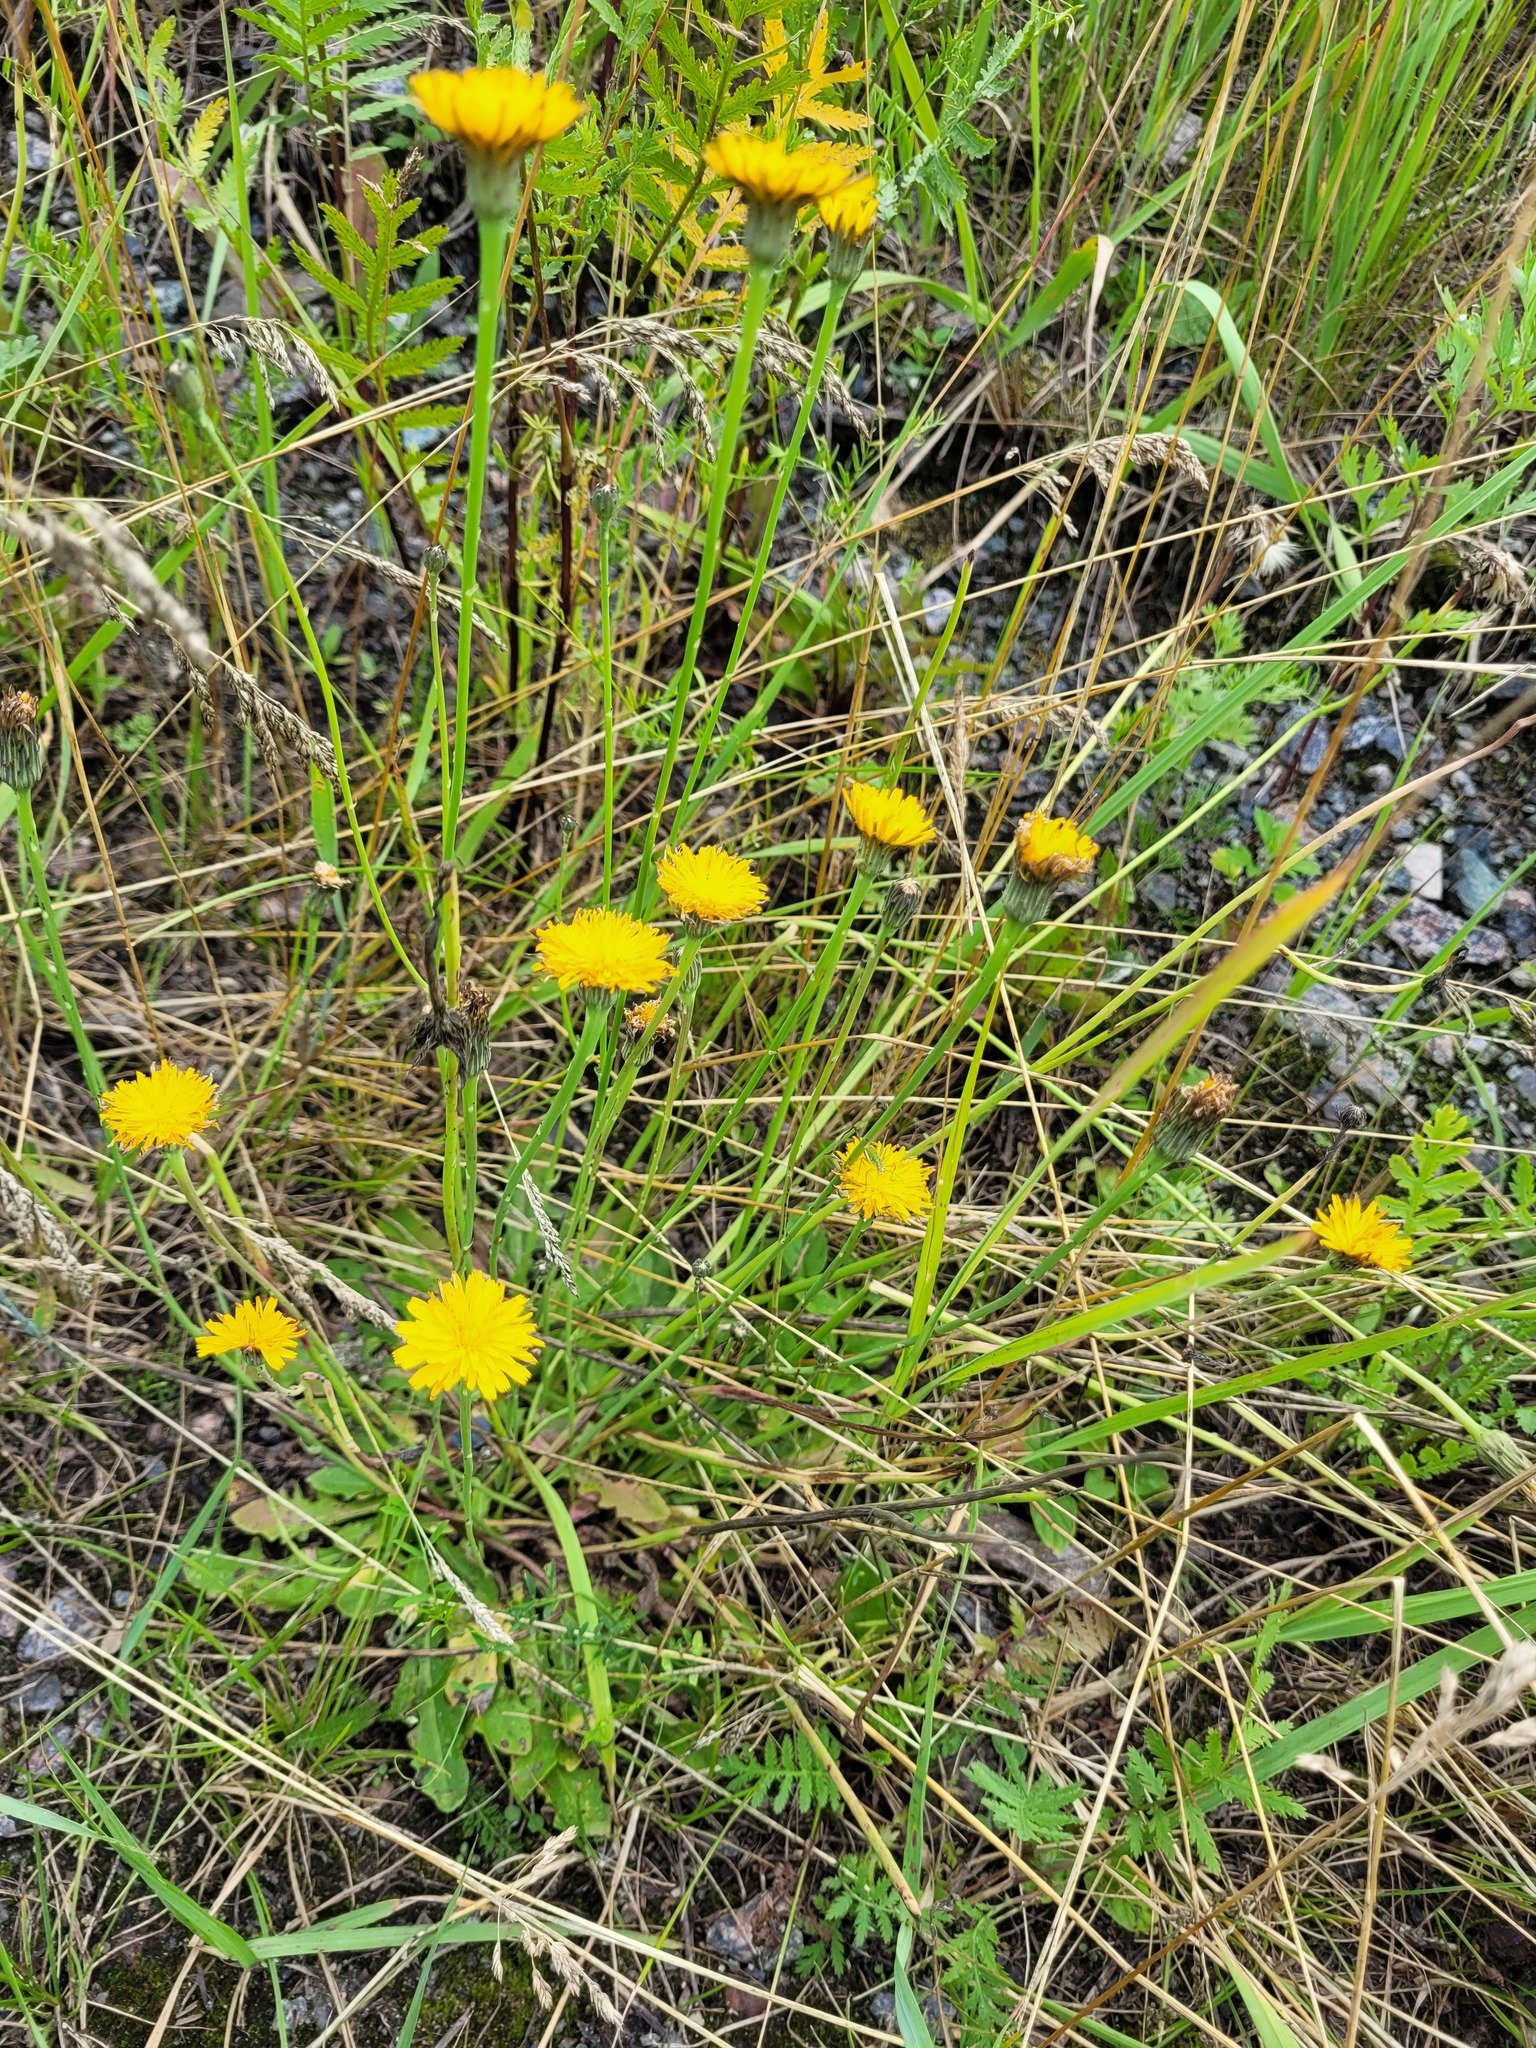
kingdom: Plantae
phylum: Tracheophyta
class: Magnoliopsida
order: Asterales
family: Asteraceae
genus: Hypochaeris
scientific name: Hypochaeris radicata
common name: Flatweed
